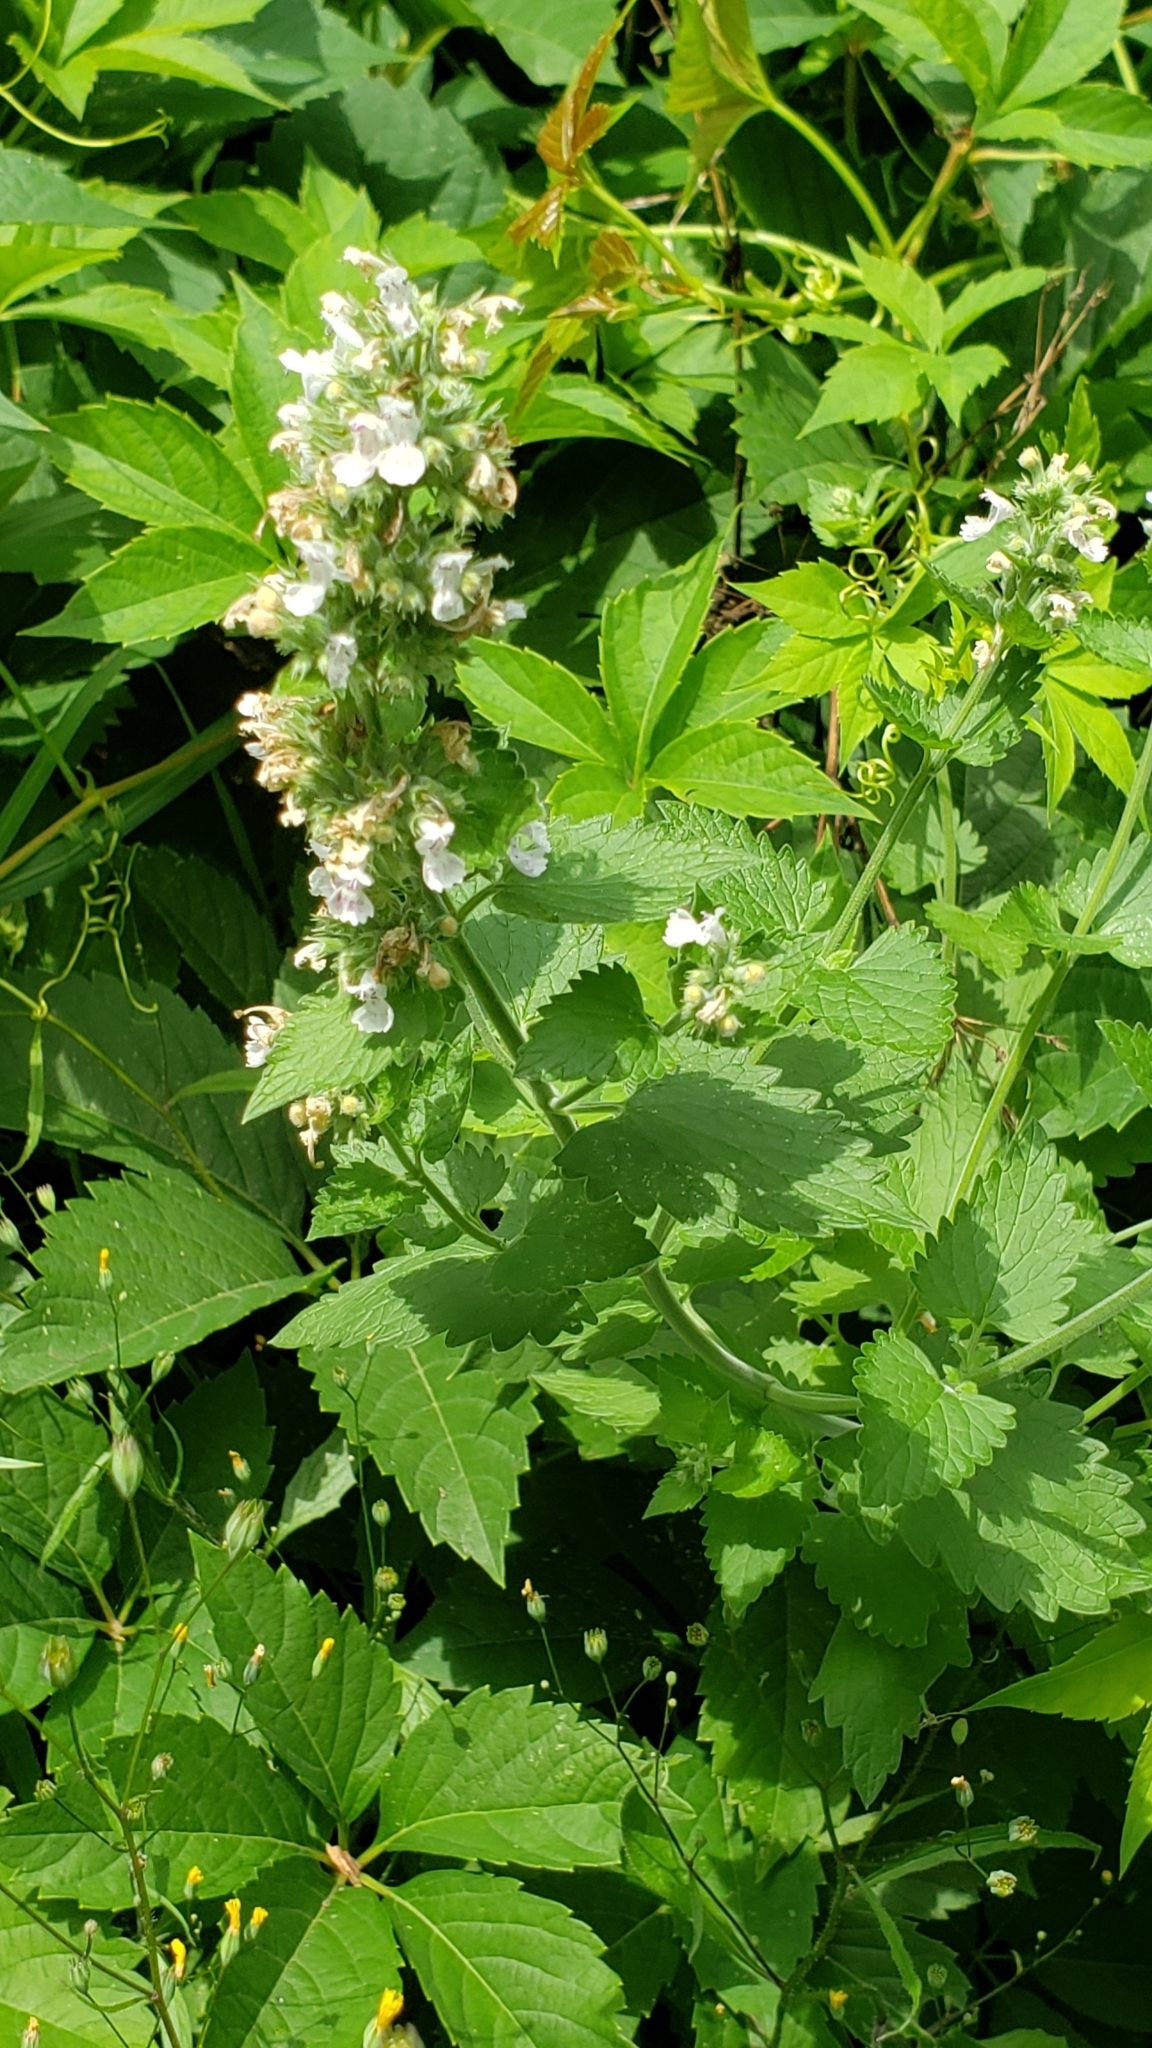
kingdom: Plantae
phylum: Tracheophyta
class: Magnoliopsida
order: Lamiales
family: Lamiaceae
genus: Nepeta
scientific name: Nepeta cataria
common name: Catnip
